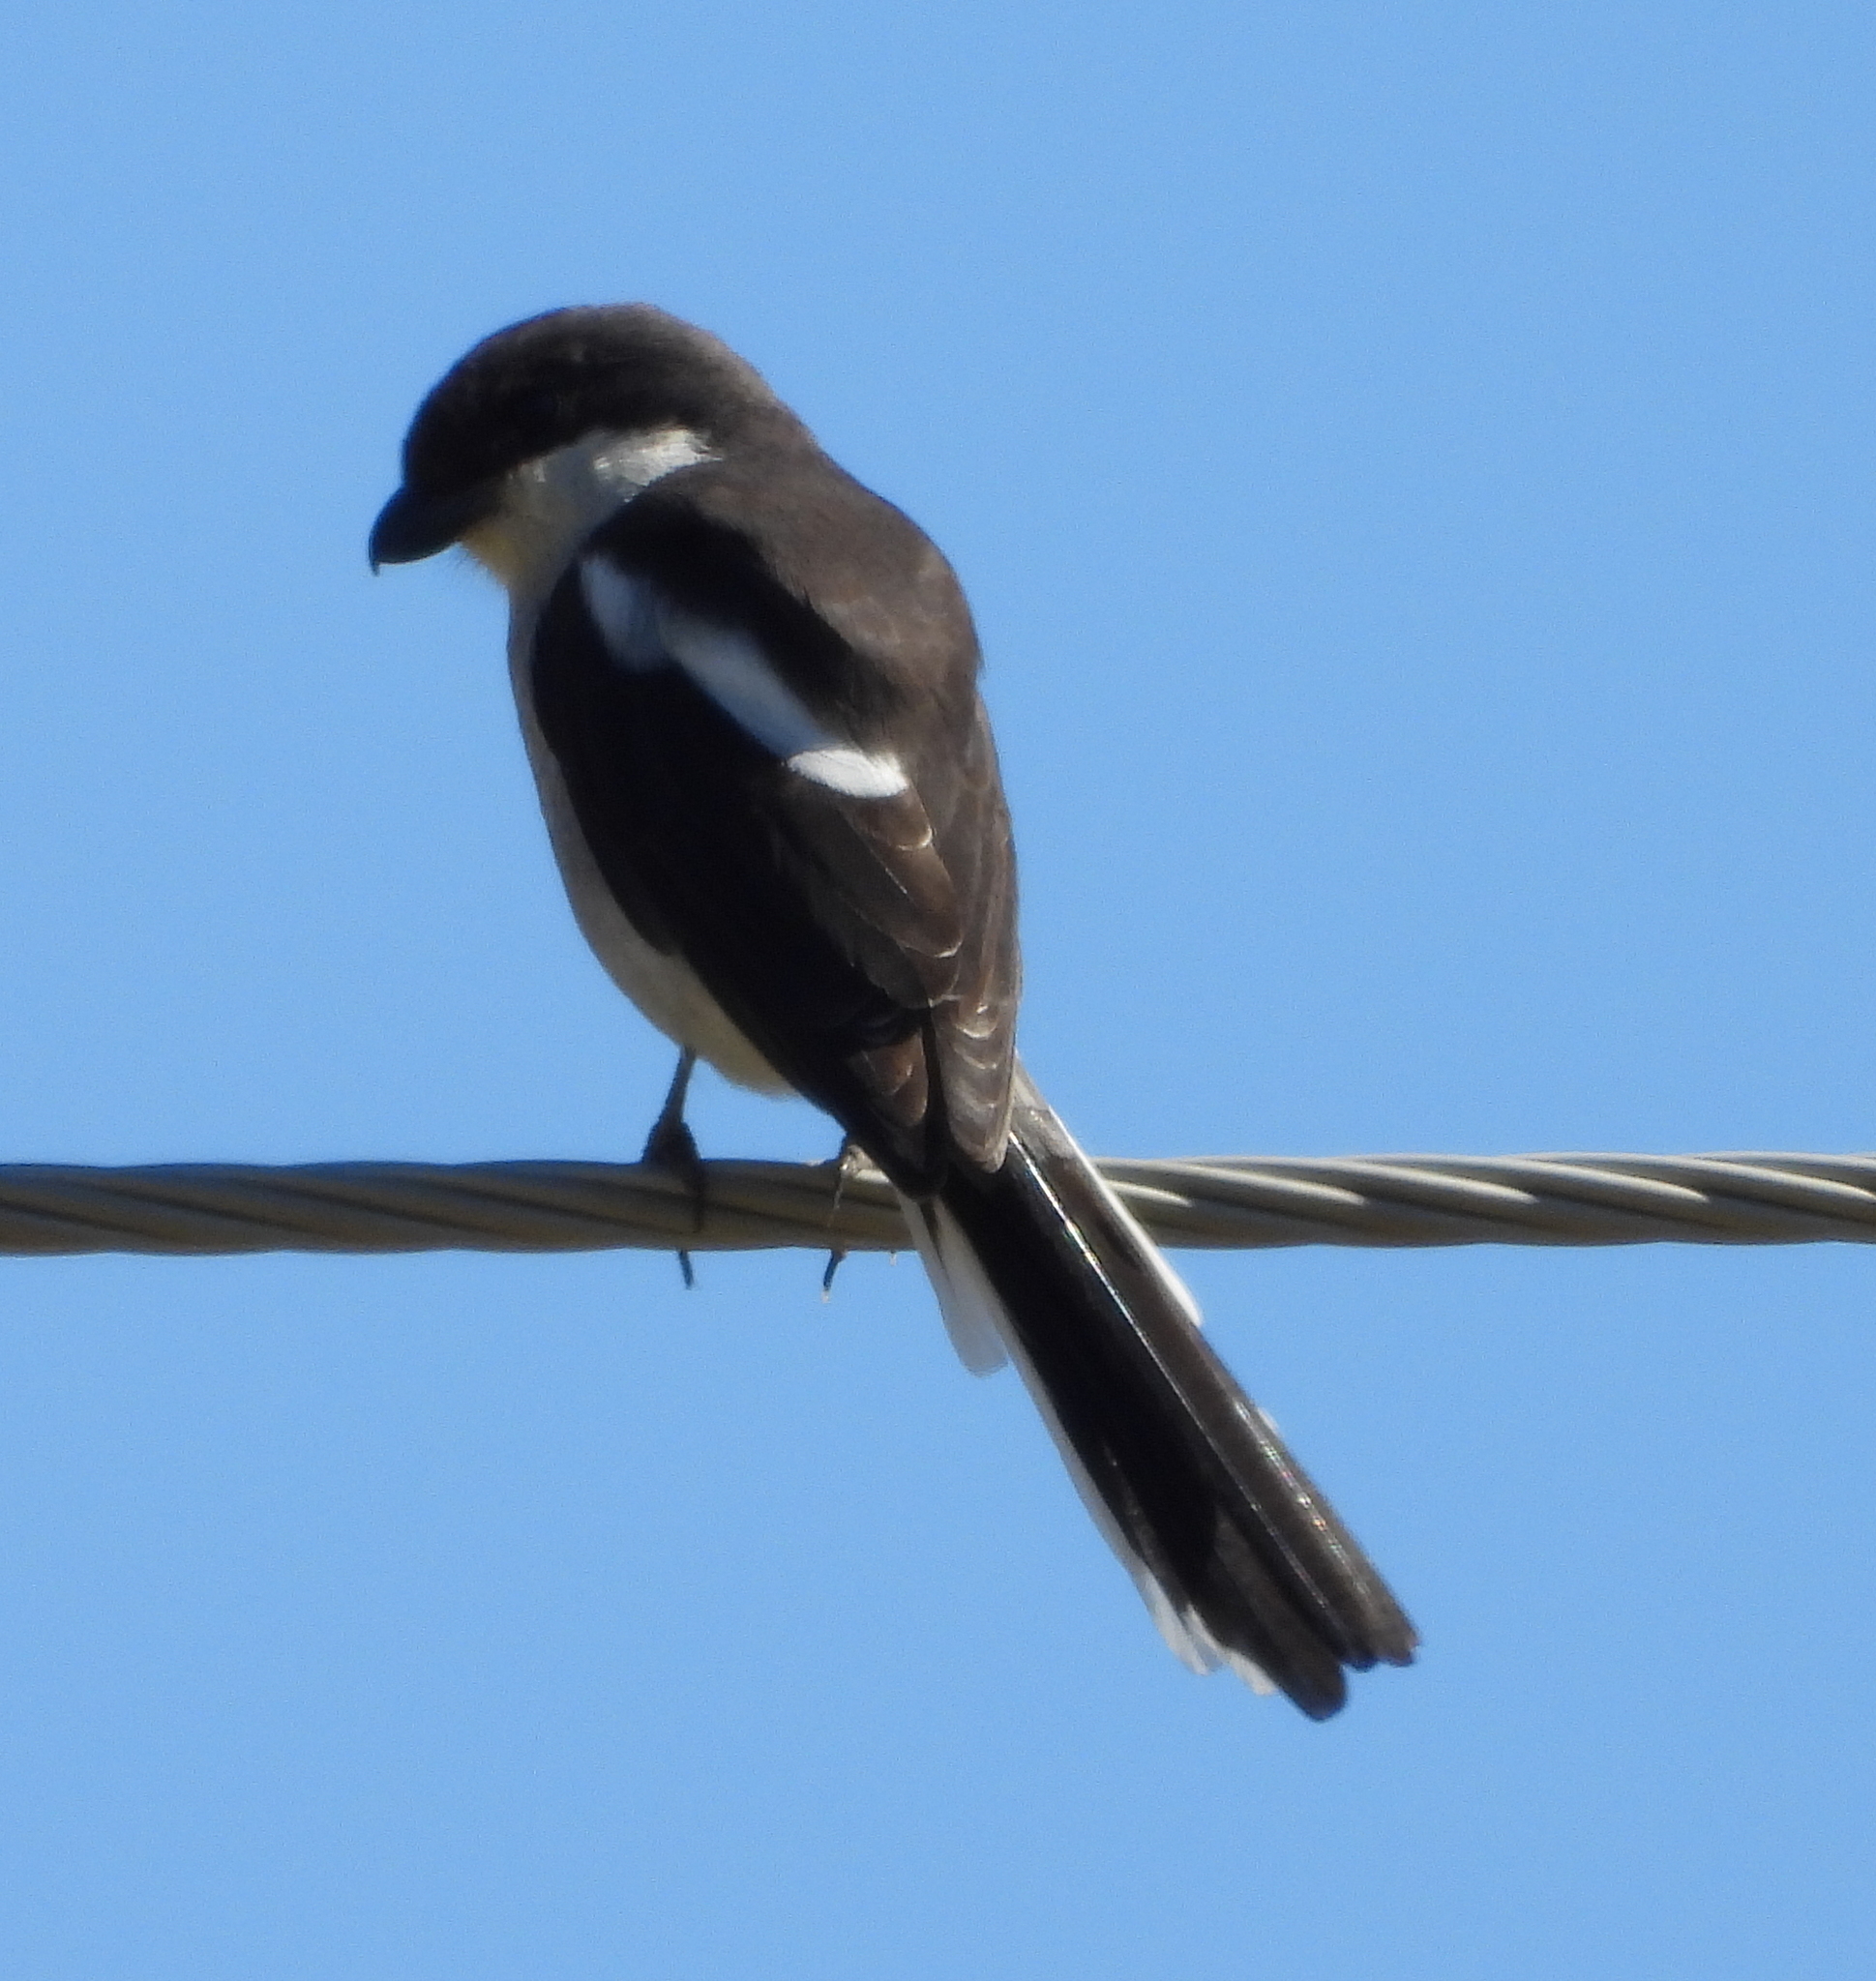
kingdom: Animalia
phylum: Chordata
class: Aves
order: Passeriformes
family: Laniidae
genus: Lanius
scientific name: Lanius collaris
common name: Southern fiscal
